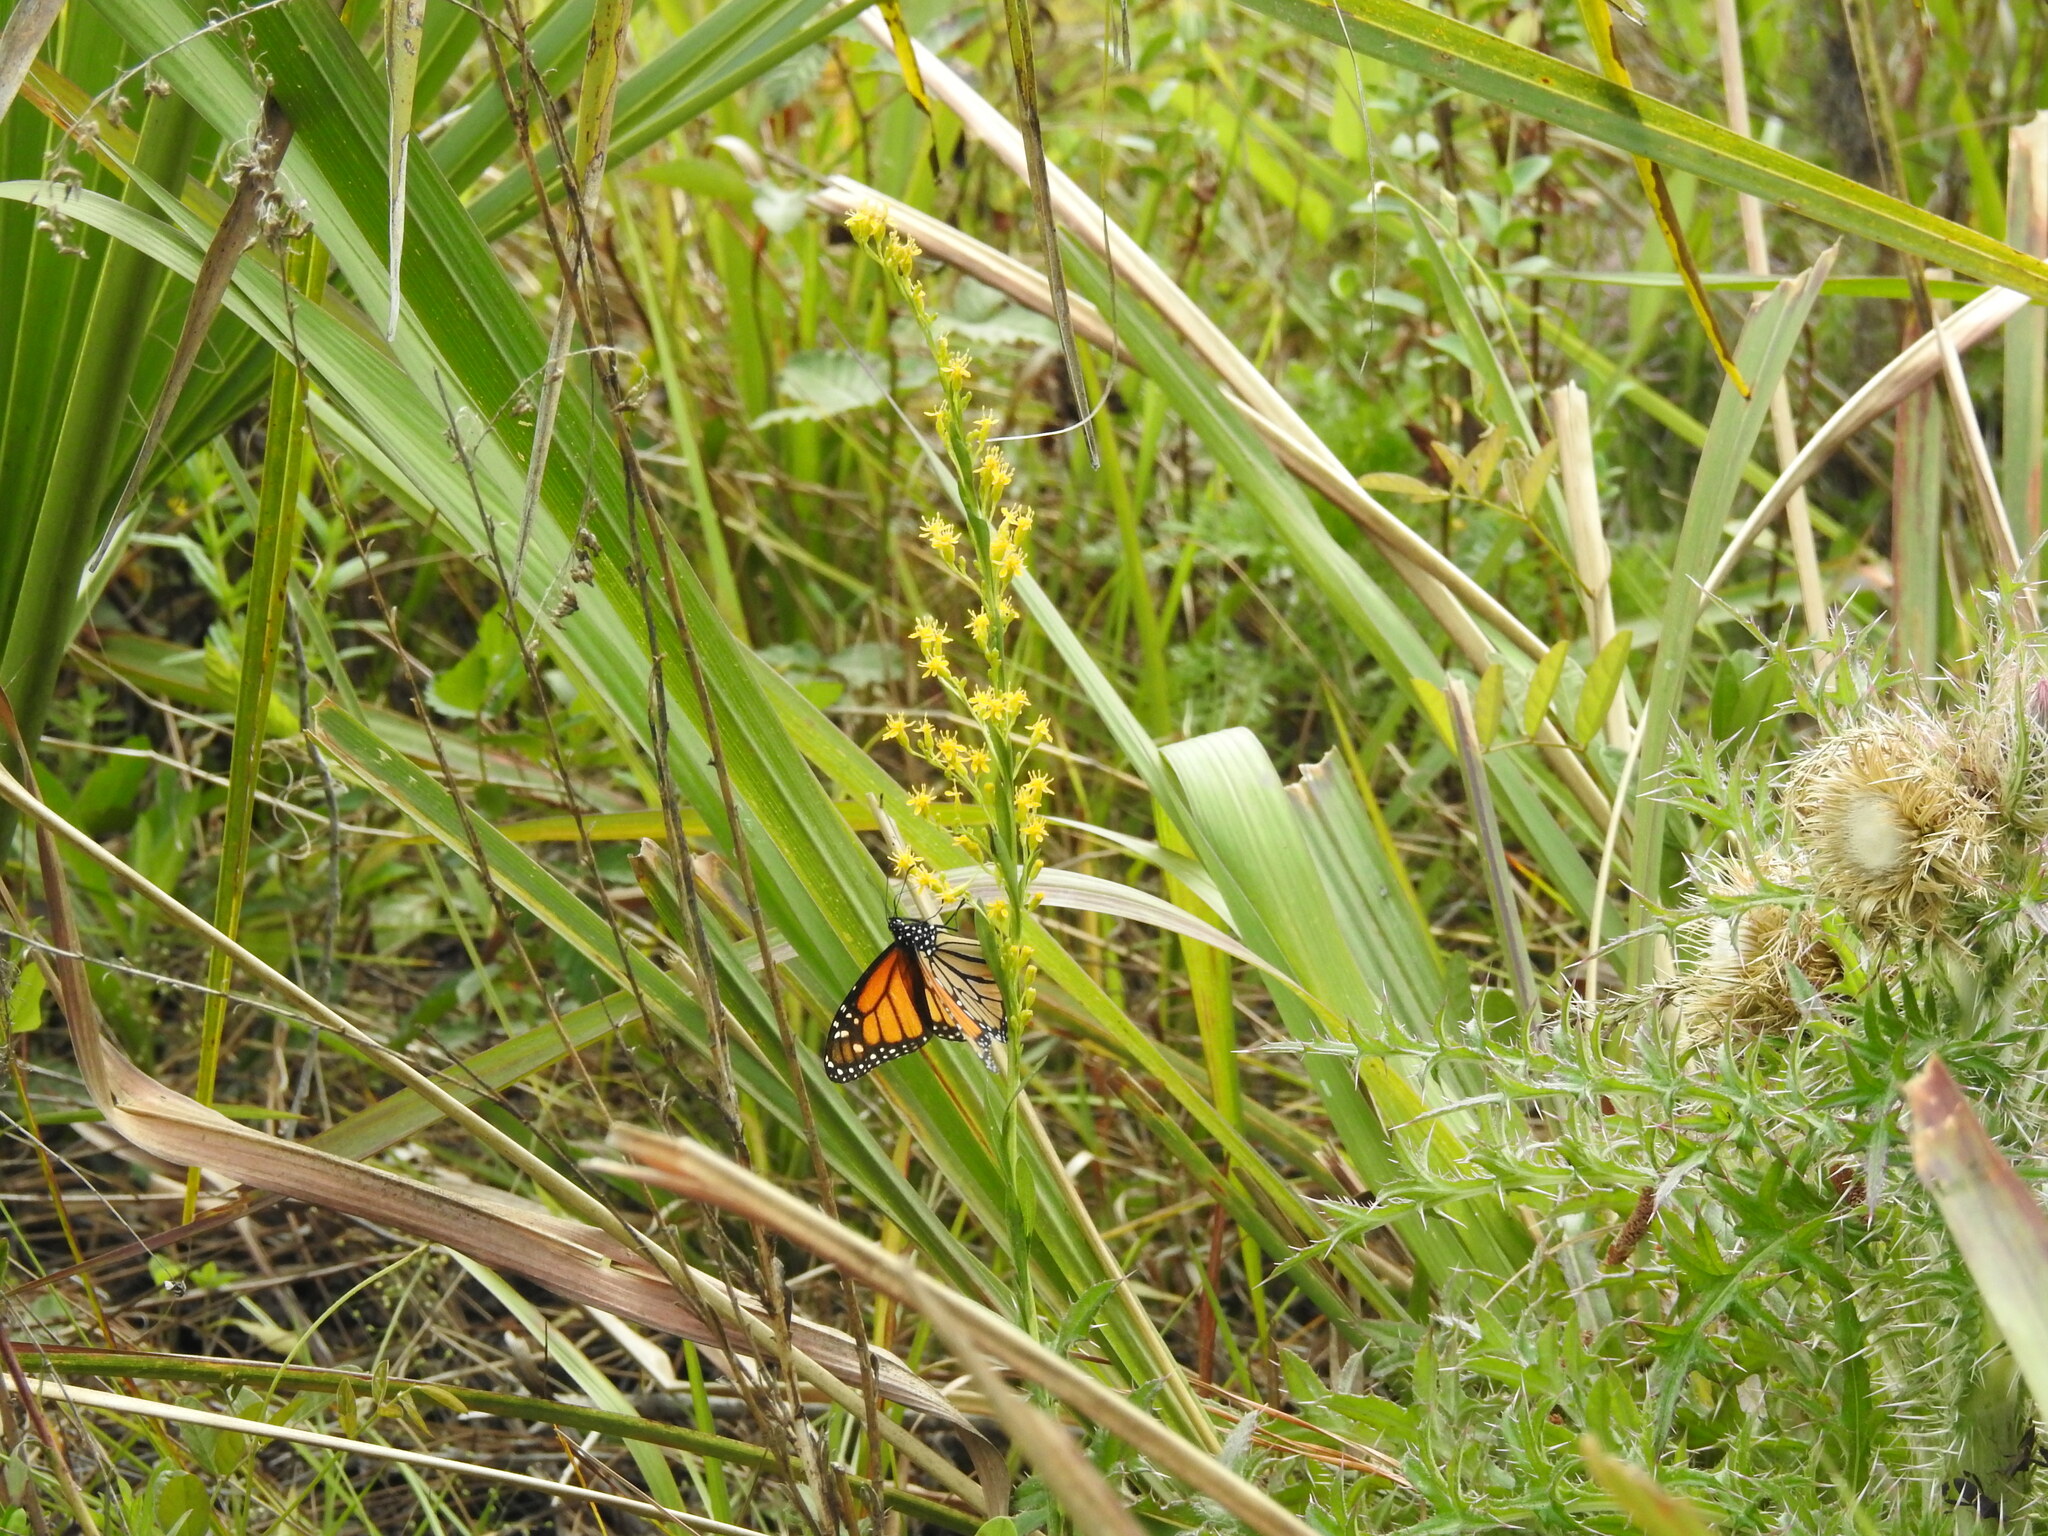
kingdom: Animalia
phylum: Arthropoda
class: Insecta
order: Lepidoptera
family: Nymphalidae
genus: Danaus
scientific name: Danaus plexippus
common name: Monarch
